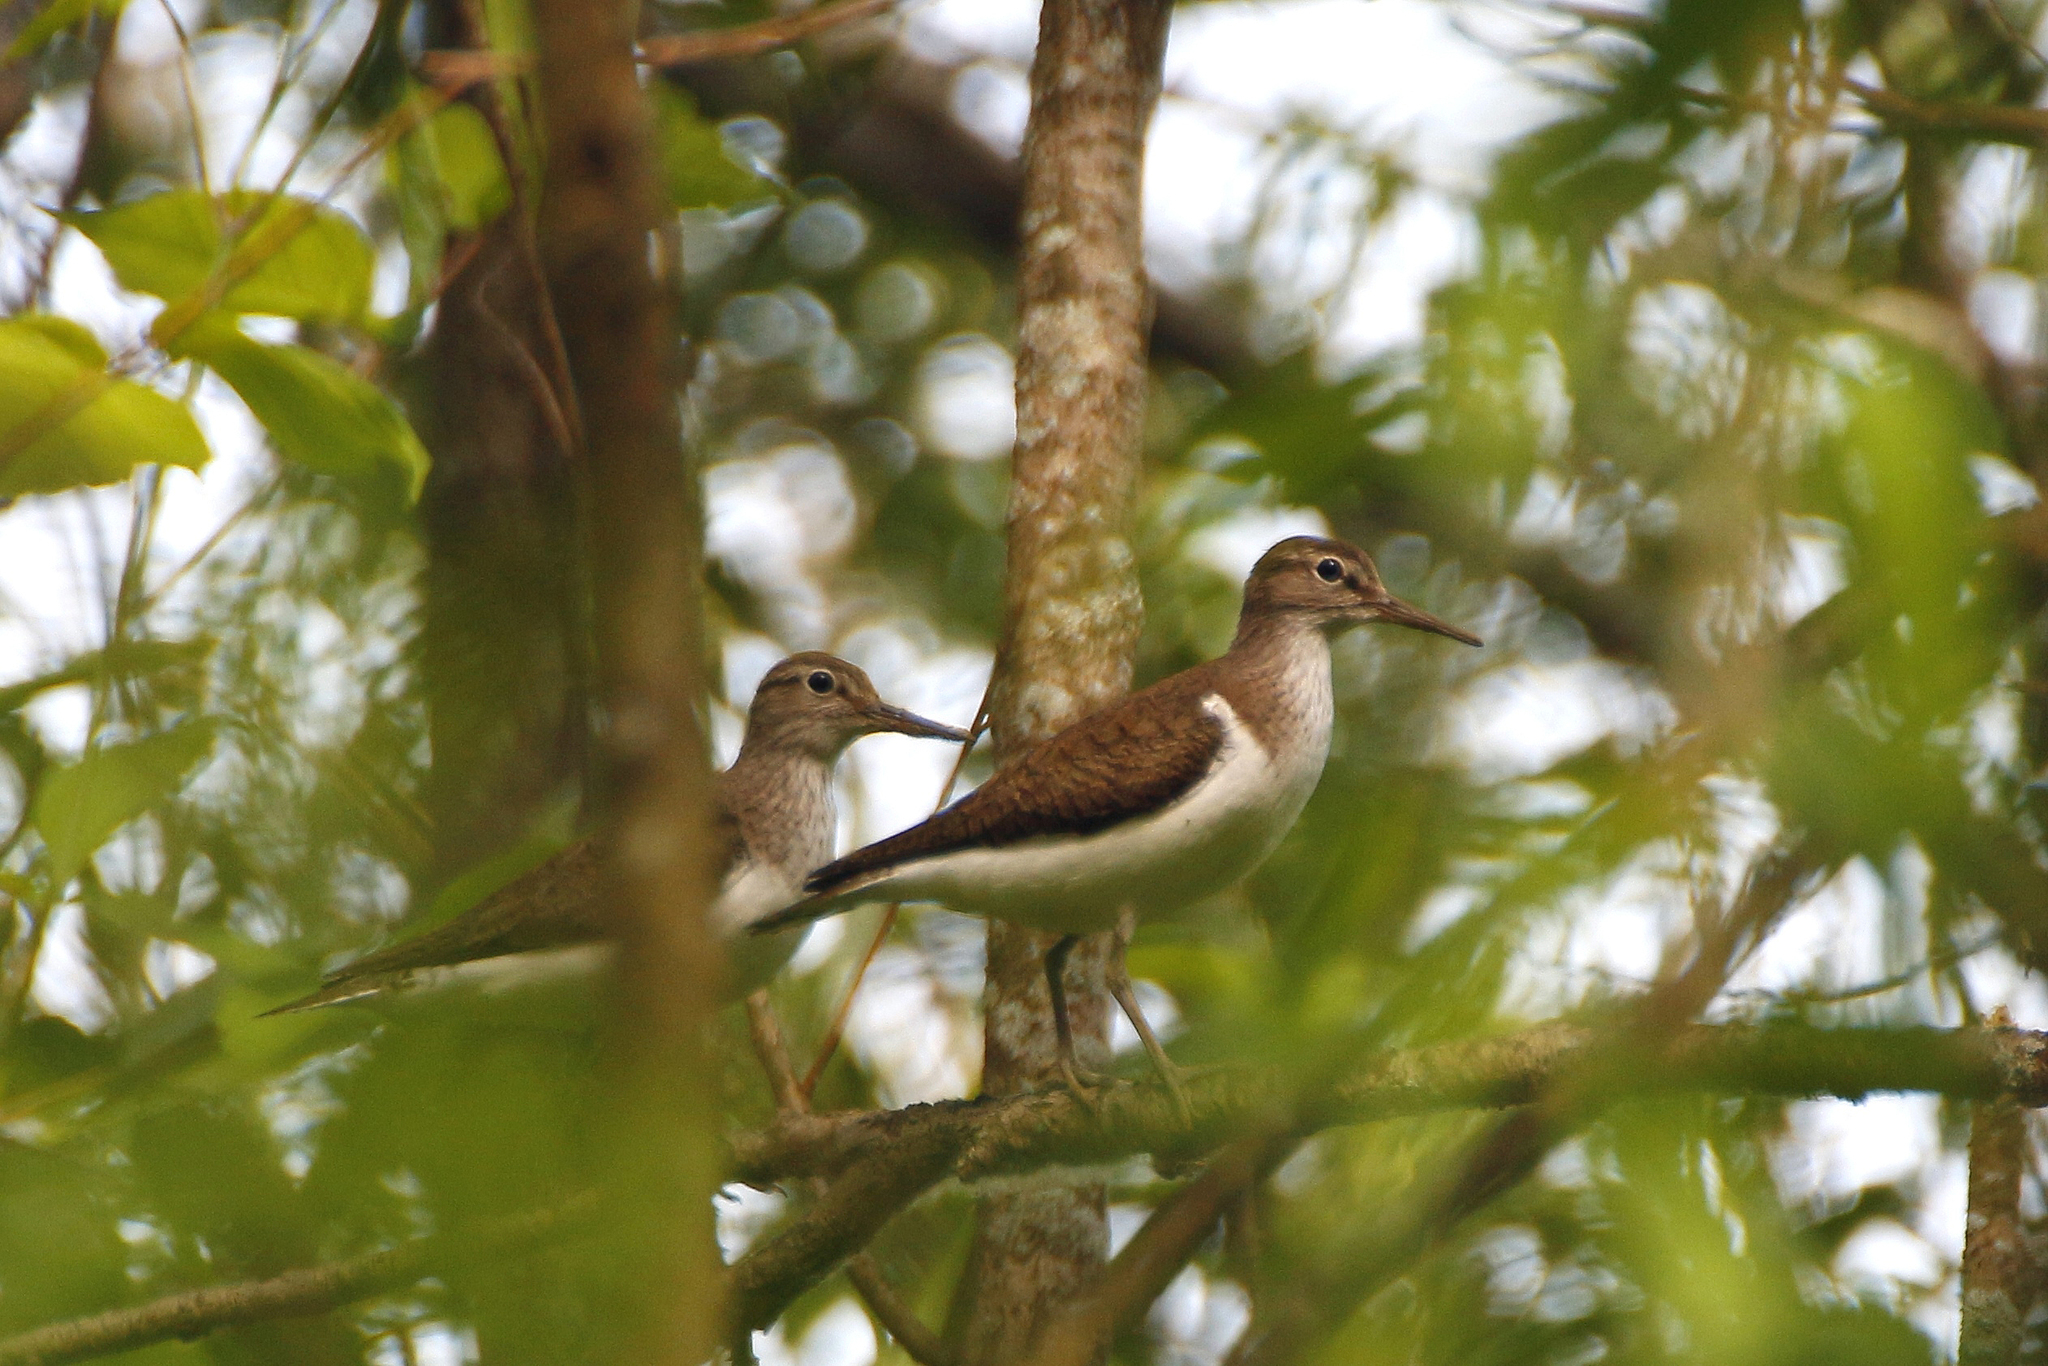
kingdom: Animalia
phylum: Chordata
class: Aves
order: Charadriiformes
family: Scolopacidae
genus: Actitis
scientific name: Actitis hypoleucos
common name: Common sandpiper
